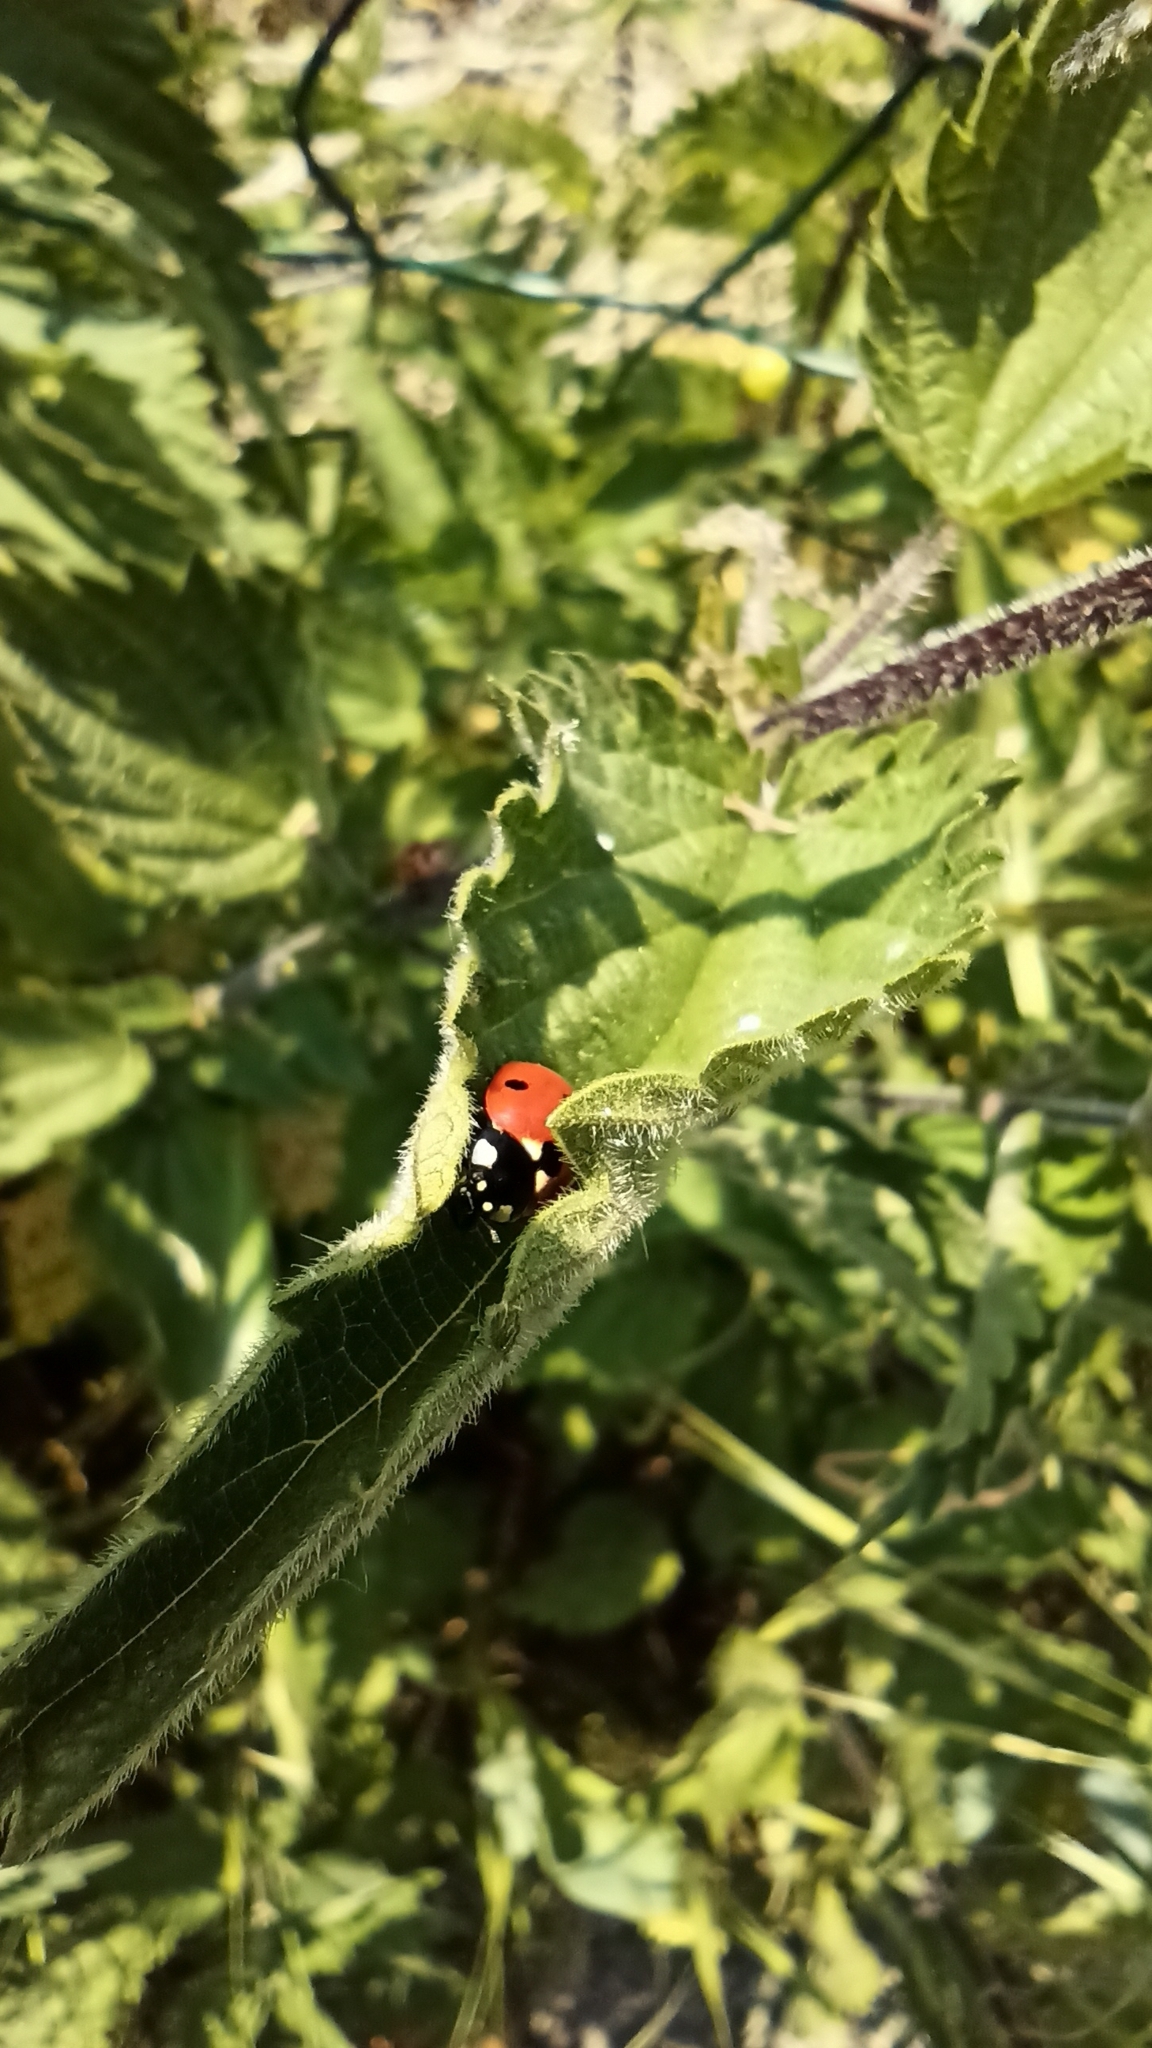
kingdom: Animalia
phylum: Arthropoda
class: Insecta
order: Coleoptera
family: Coccinellidae
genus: Coccinella
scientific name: Coccinella septempunctata
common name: Sevenspotted lady beetle
